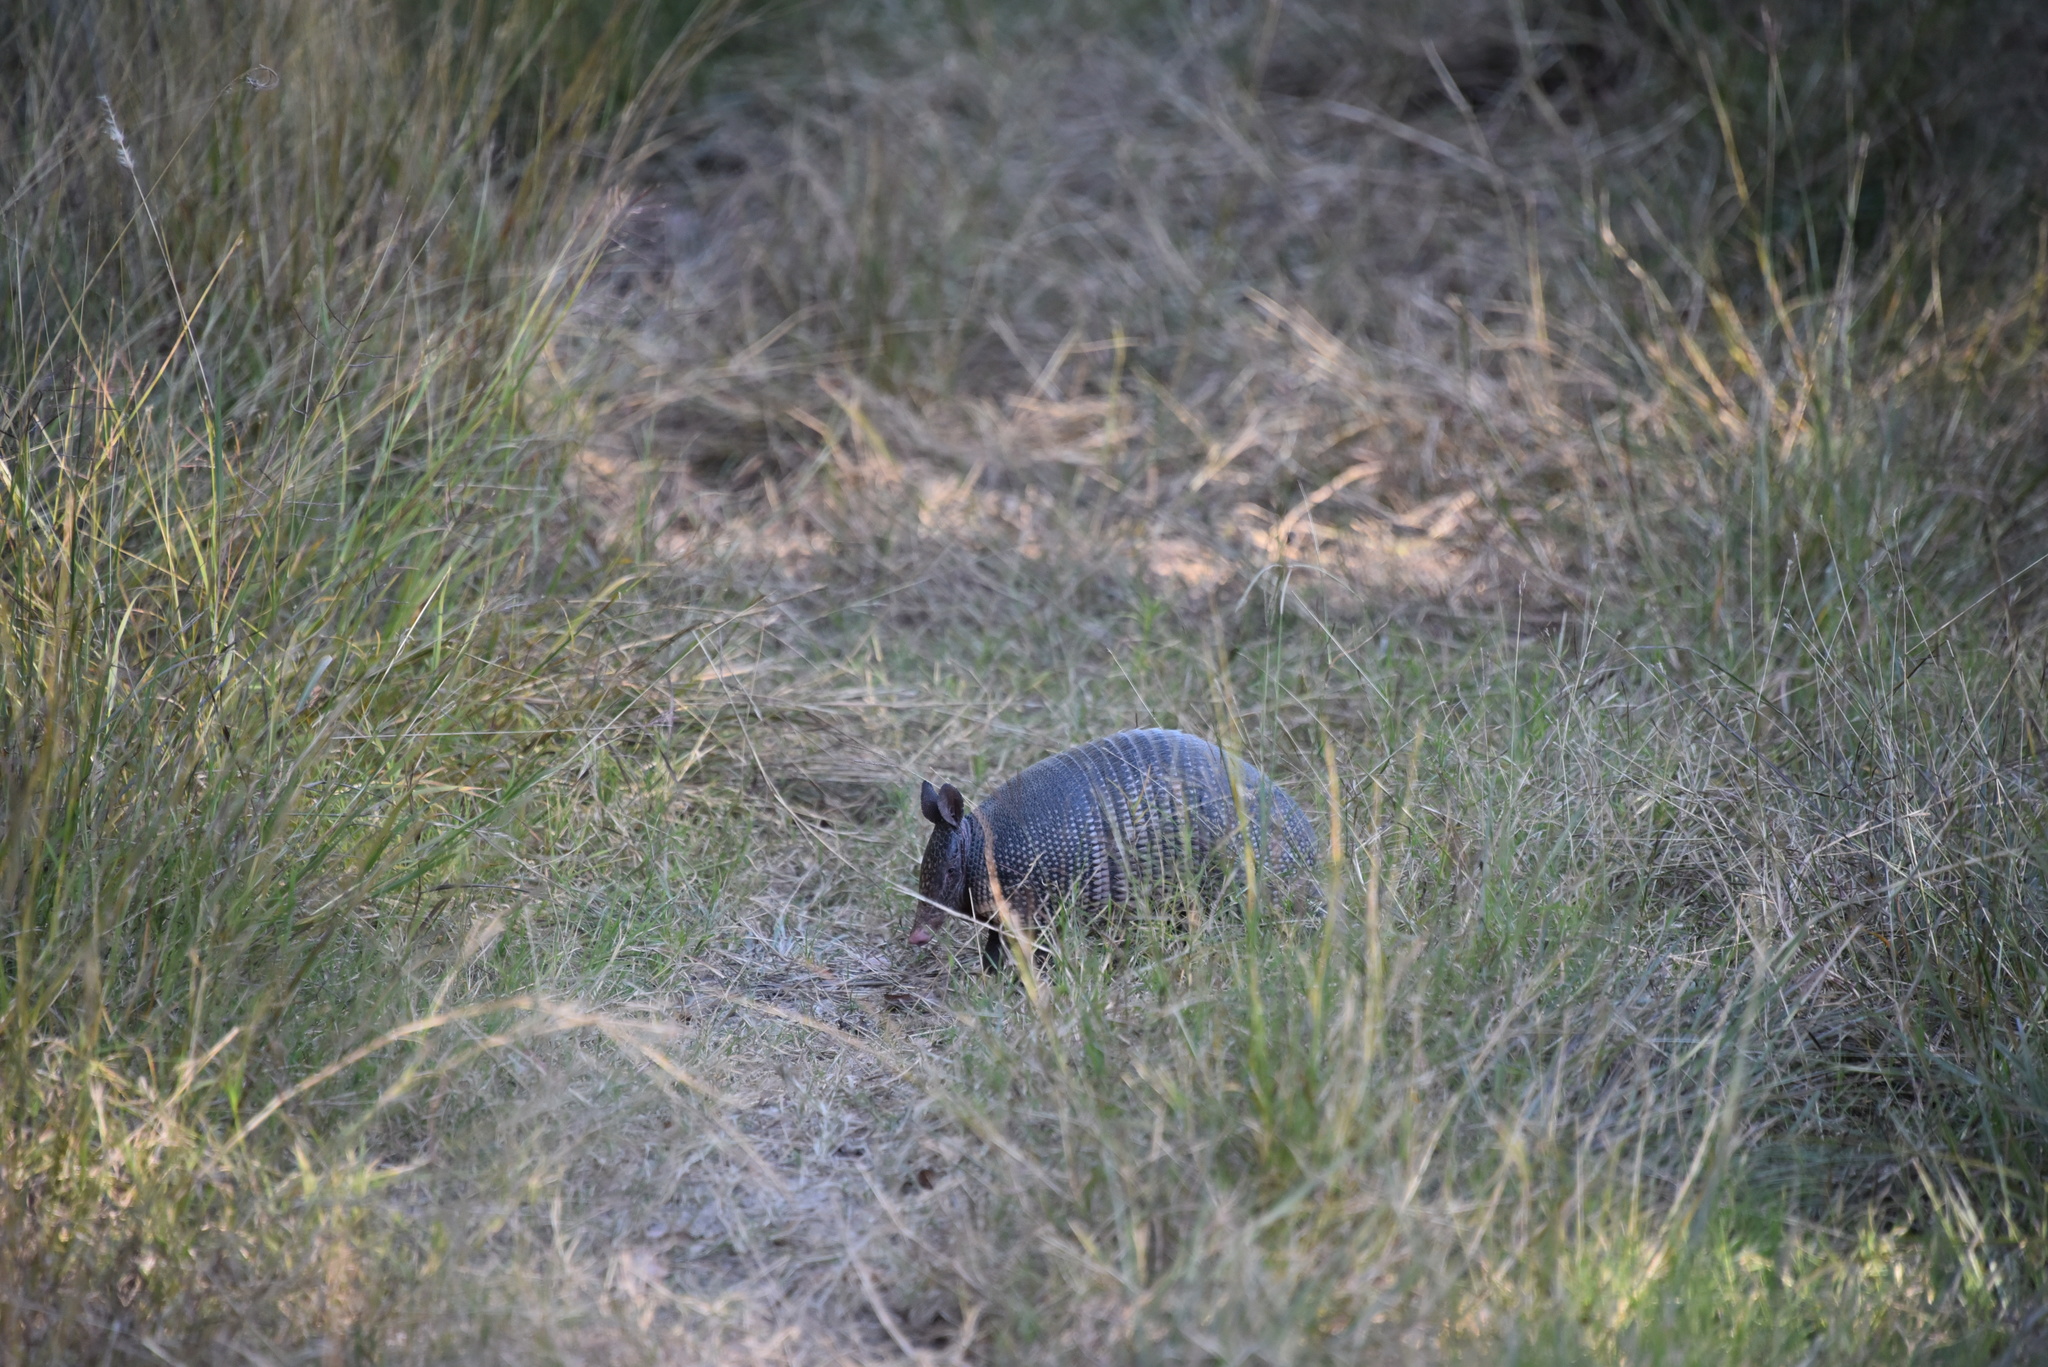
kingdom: Animalia
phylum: Chordata
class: Mammalia
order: Cingulata
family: Dasypodidae
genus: Dasypus
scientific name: Dasypus novemcinctus
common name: Nine-banded armadillo
